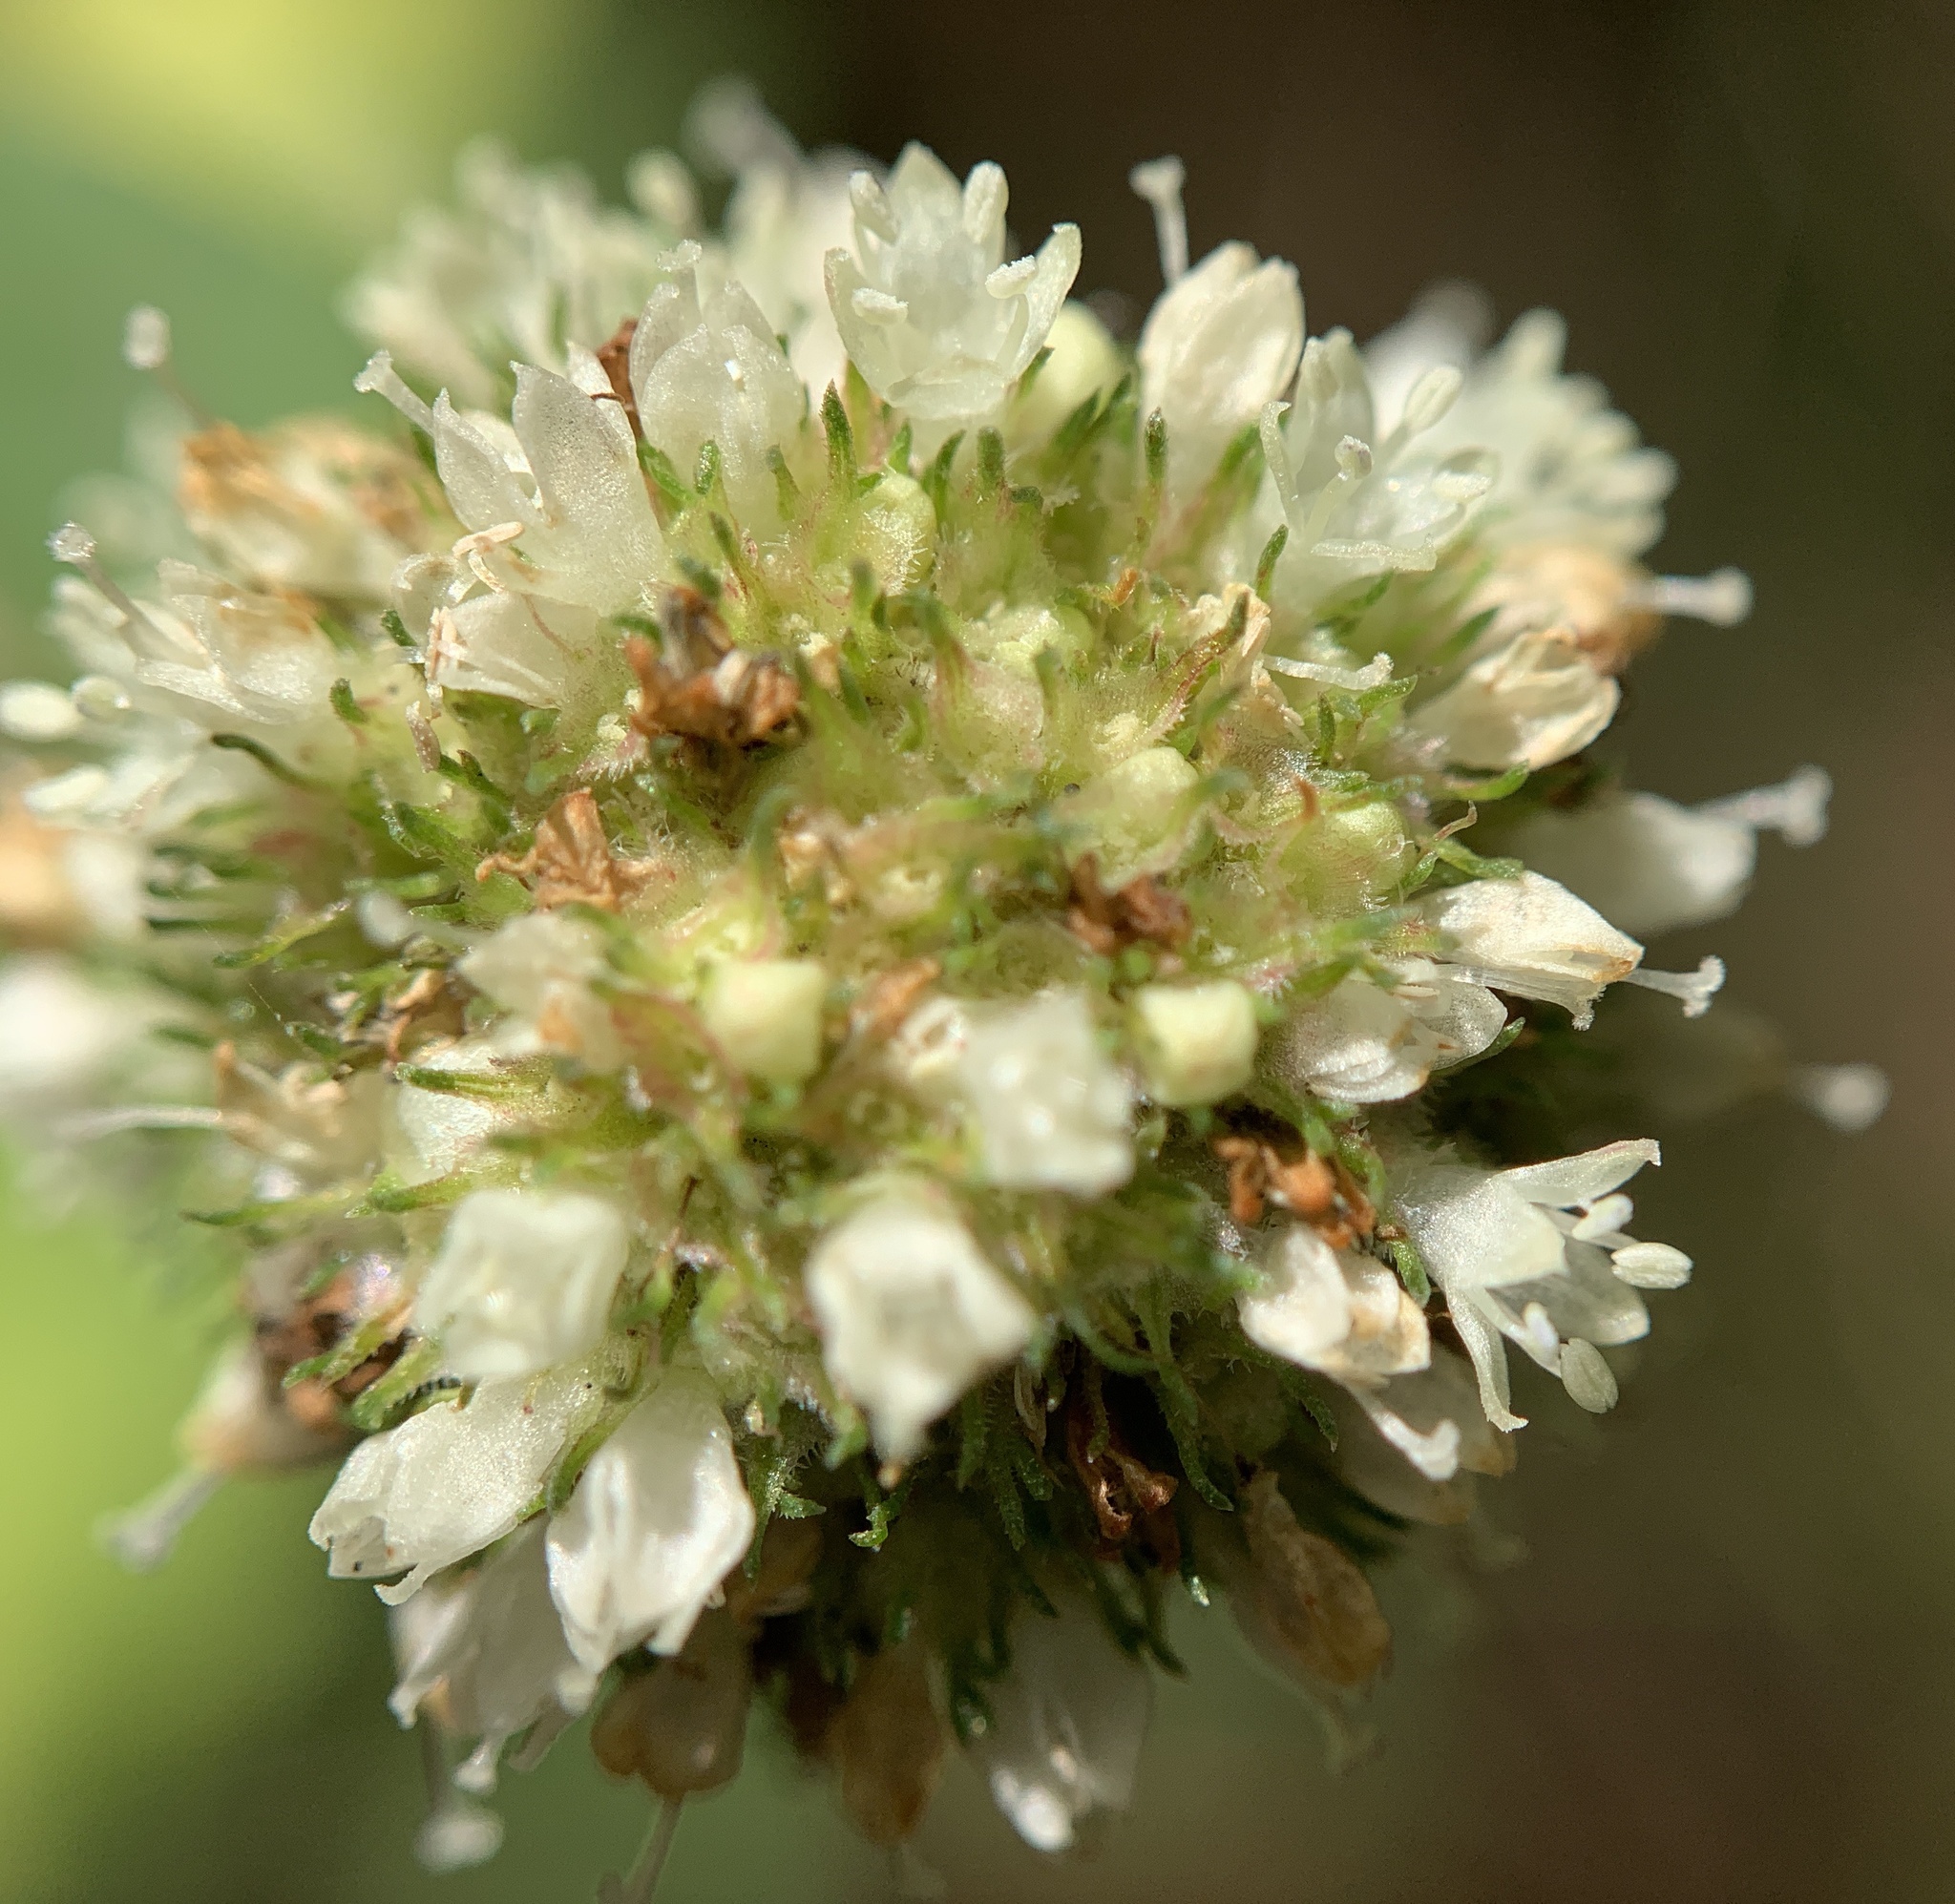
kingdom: Plantae
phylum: Tracheophyta
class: Magnoliopsida
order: Gentianales
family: Rubiaceae
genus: Spermacoce
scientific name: Spermacoce verticillata
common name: Shrubby false buttonweed
